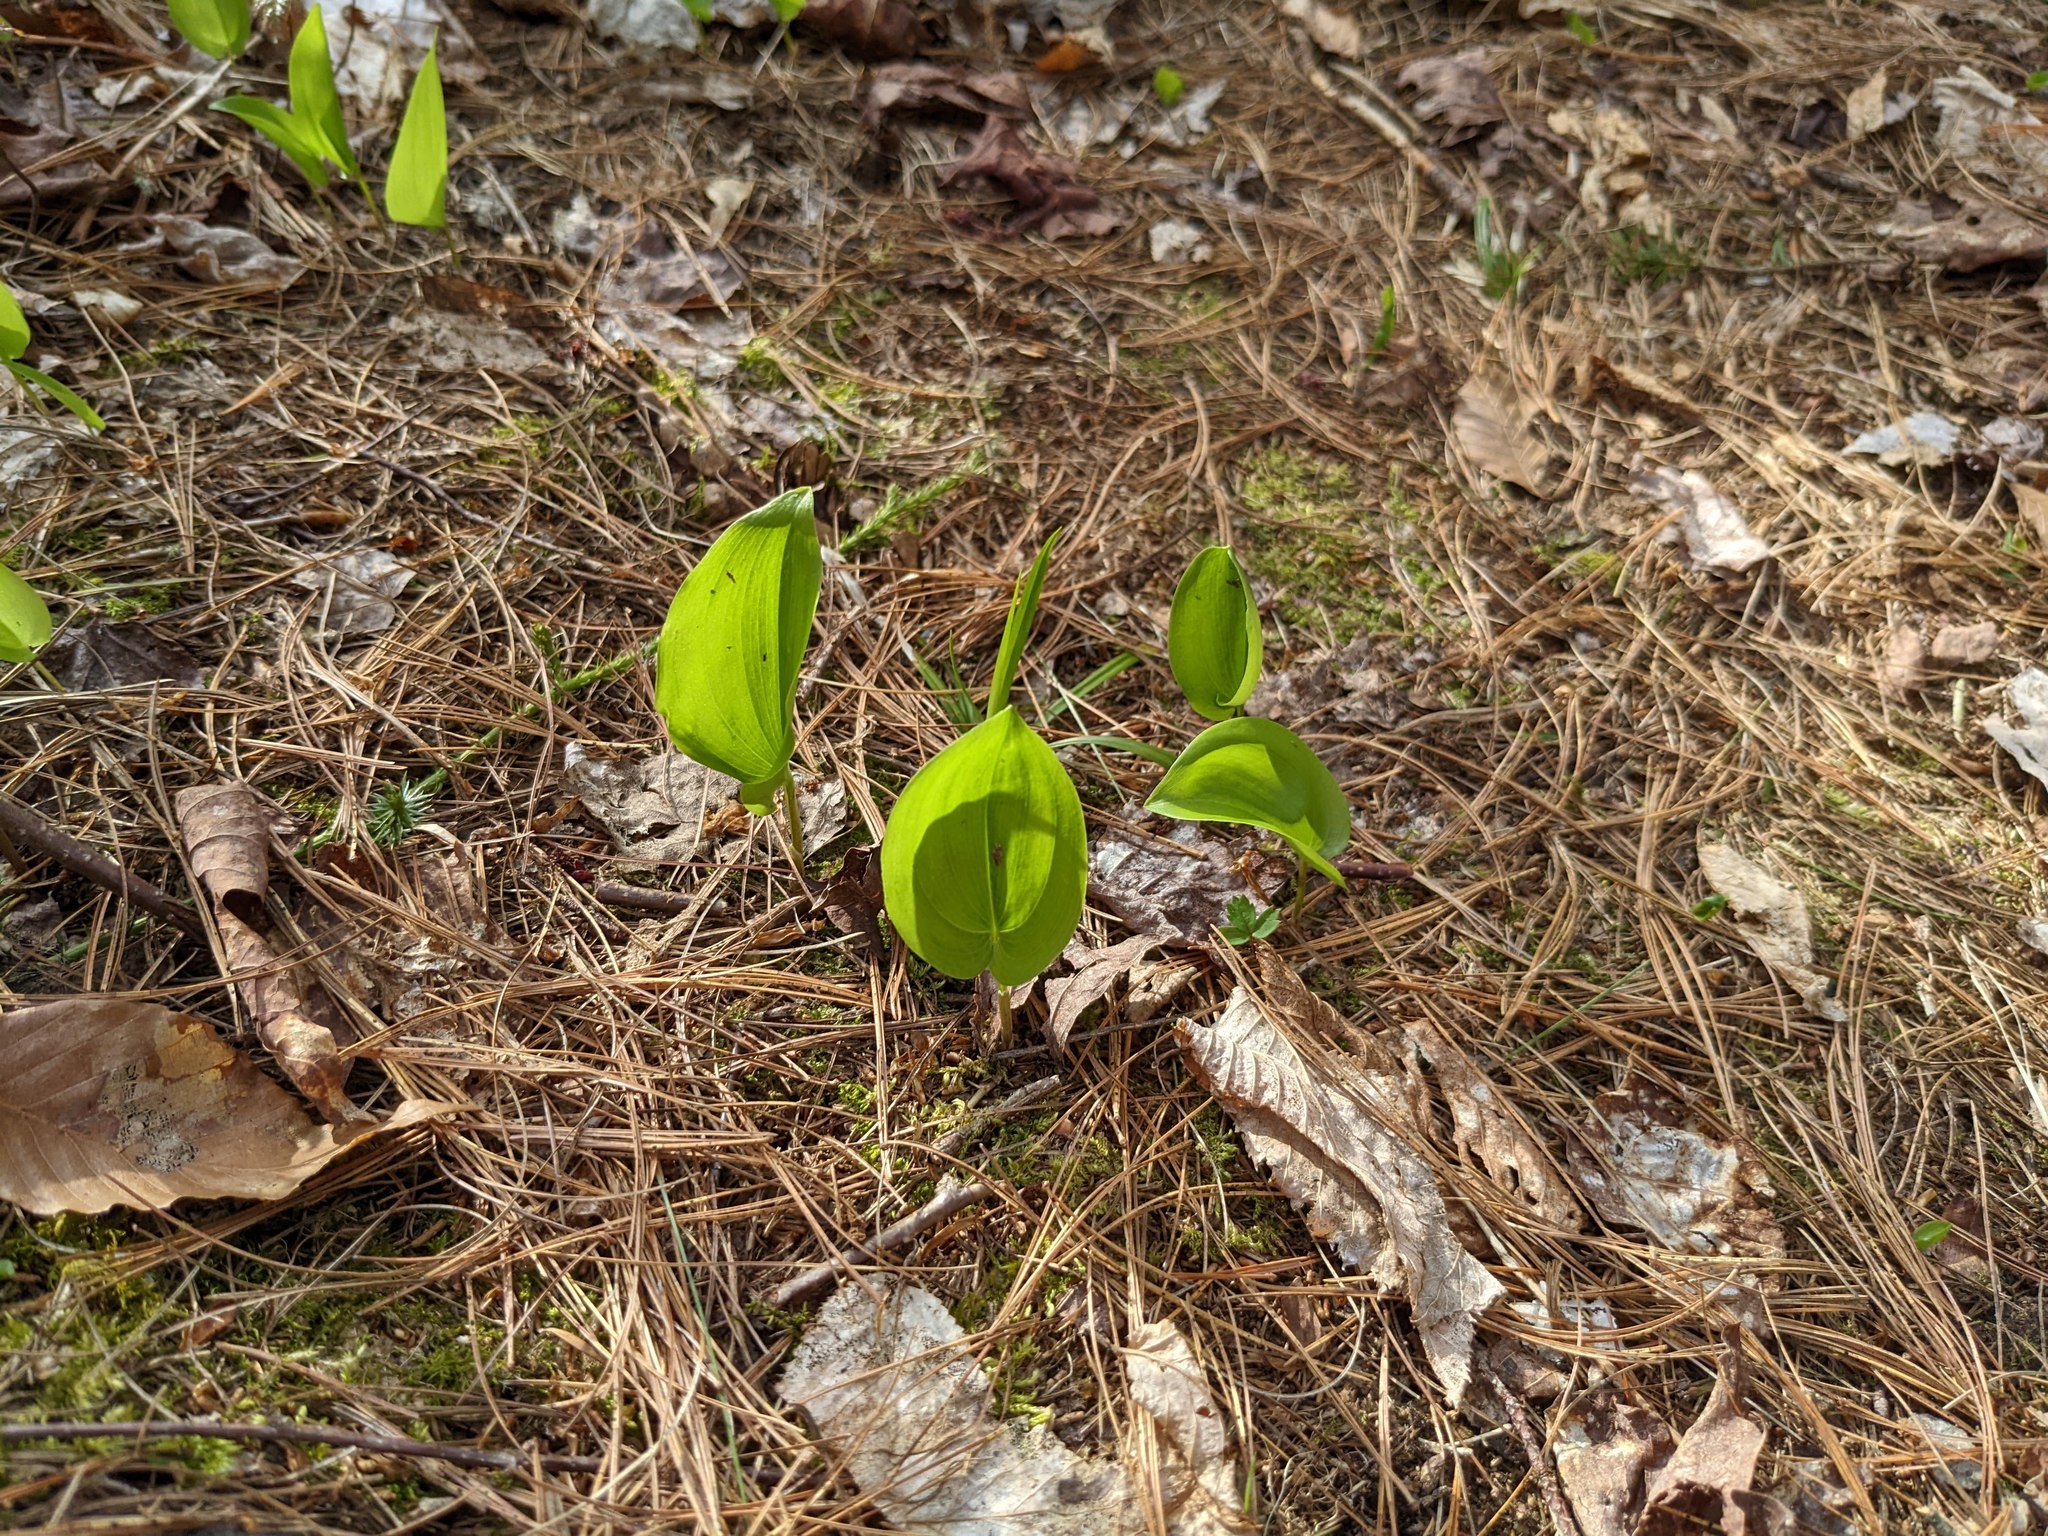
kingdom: Plantae
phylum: Tracheophyta
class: Liliopsida
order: Asparagales
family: Asparagaceae
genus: Maianthemum
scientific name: Maianthemum canadense
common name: False lily-of-the-valley
